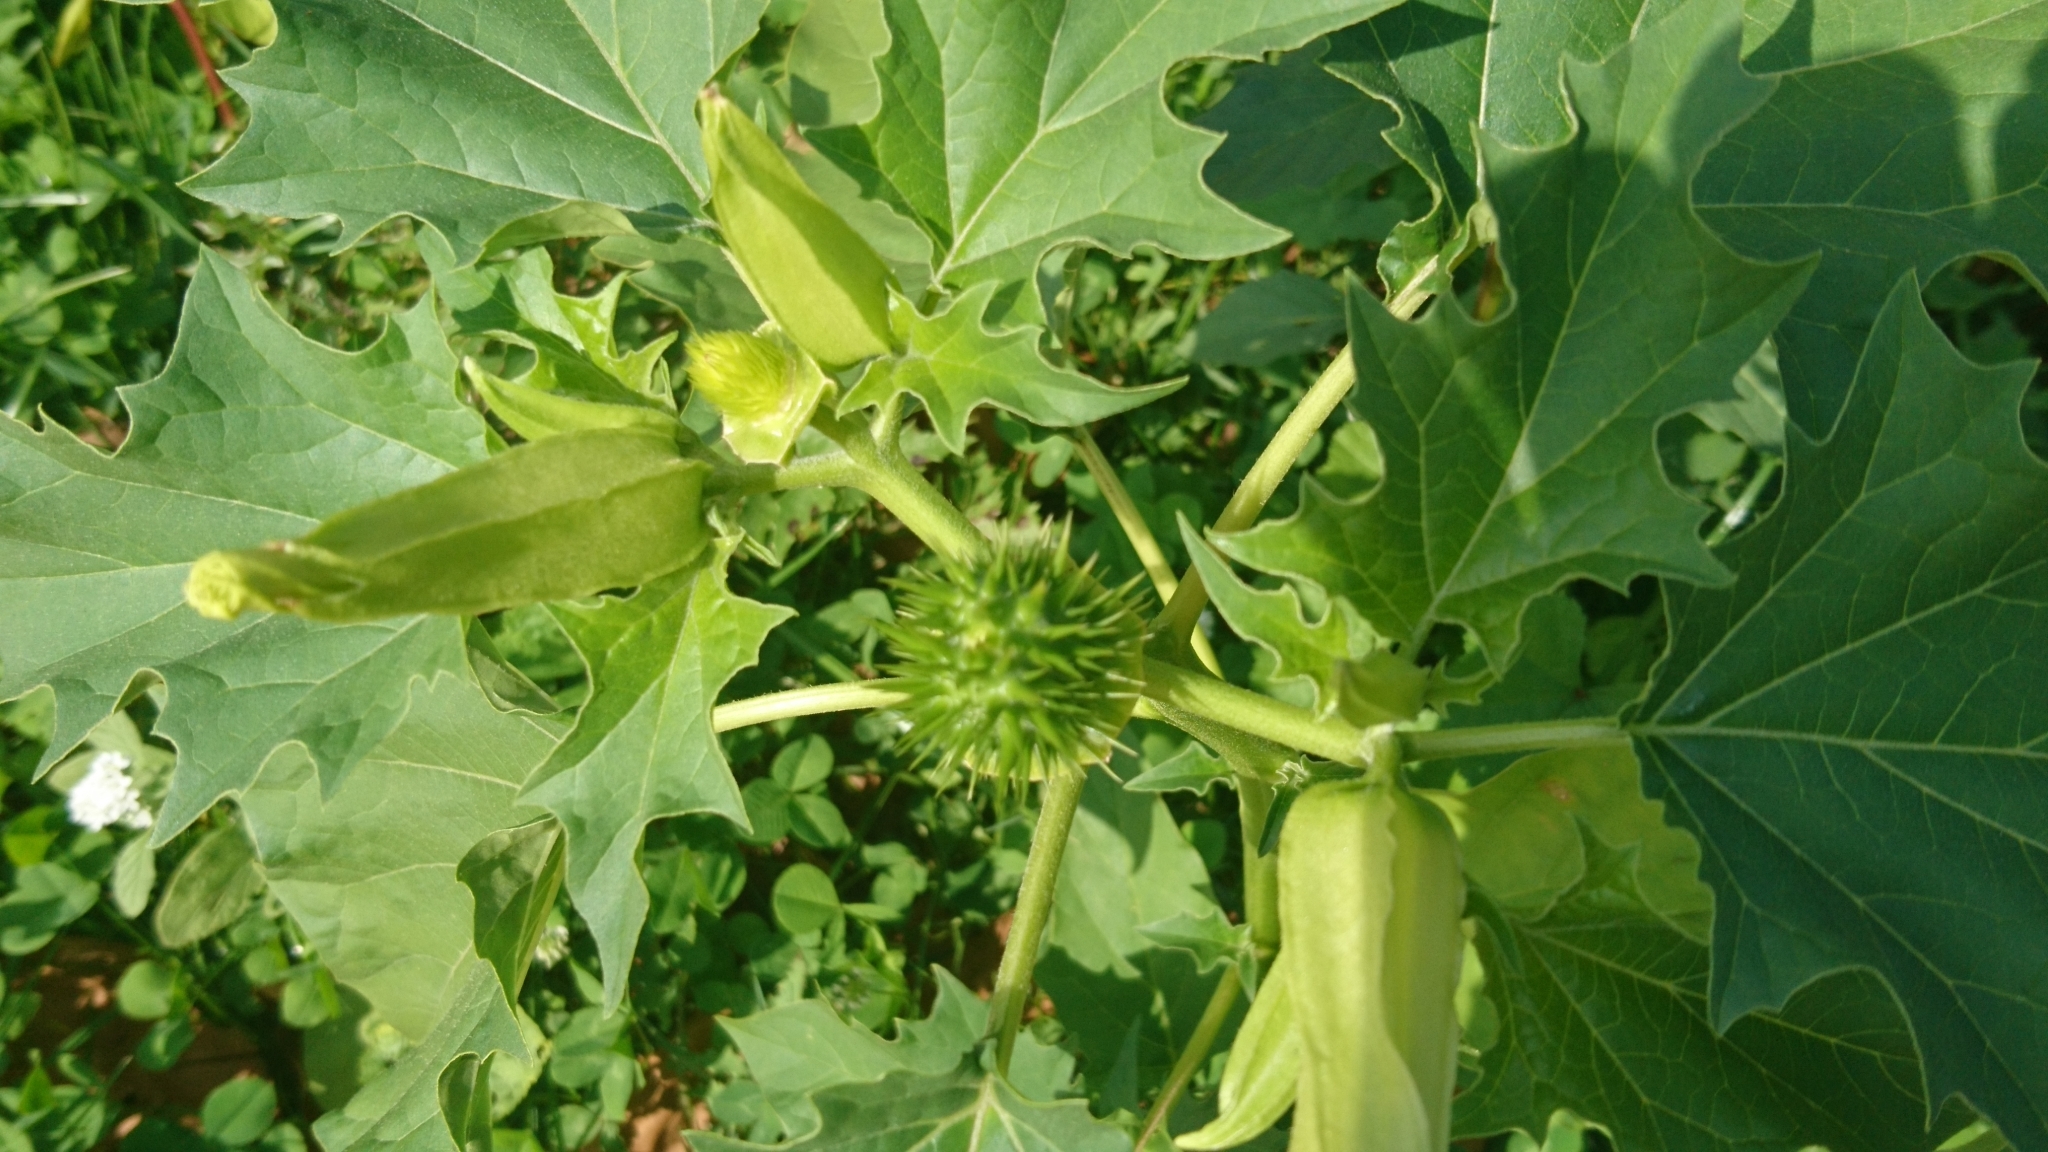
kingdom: Plantae
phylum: Tracheophyta
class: Magnoliopsida
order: Solanales
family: Solanaceae
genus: Datura
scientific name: Datura stramonium
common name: Thorn-apple
